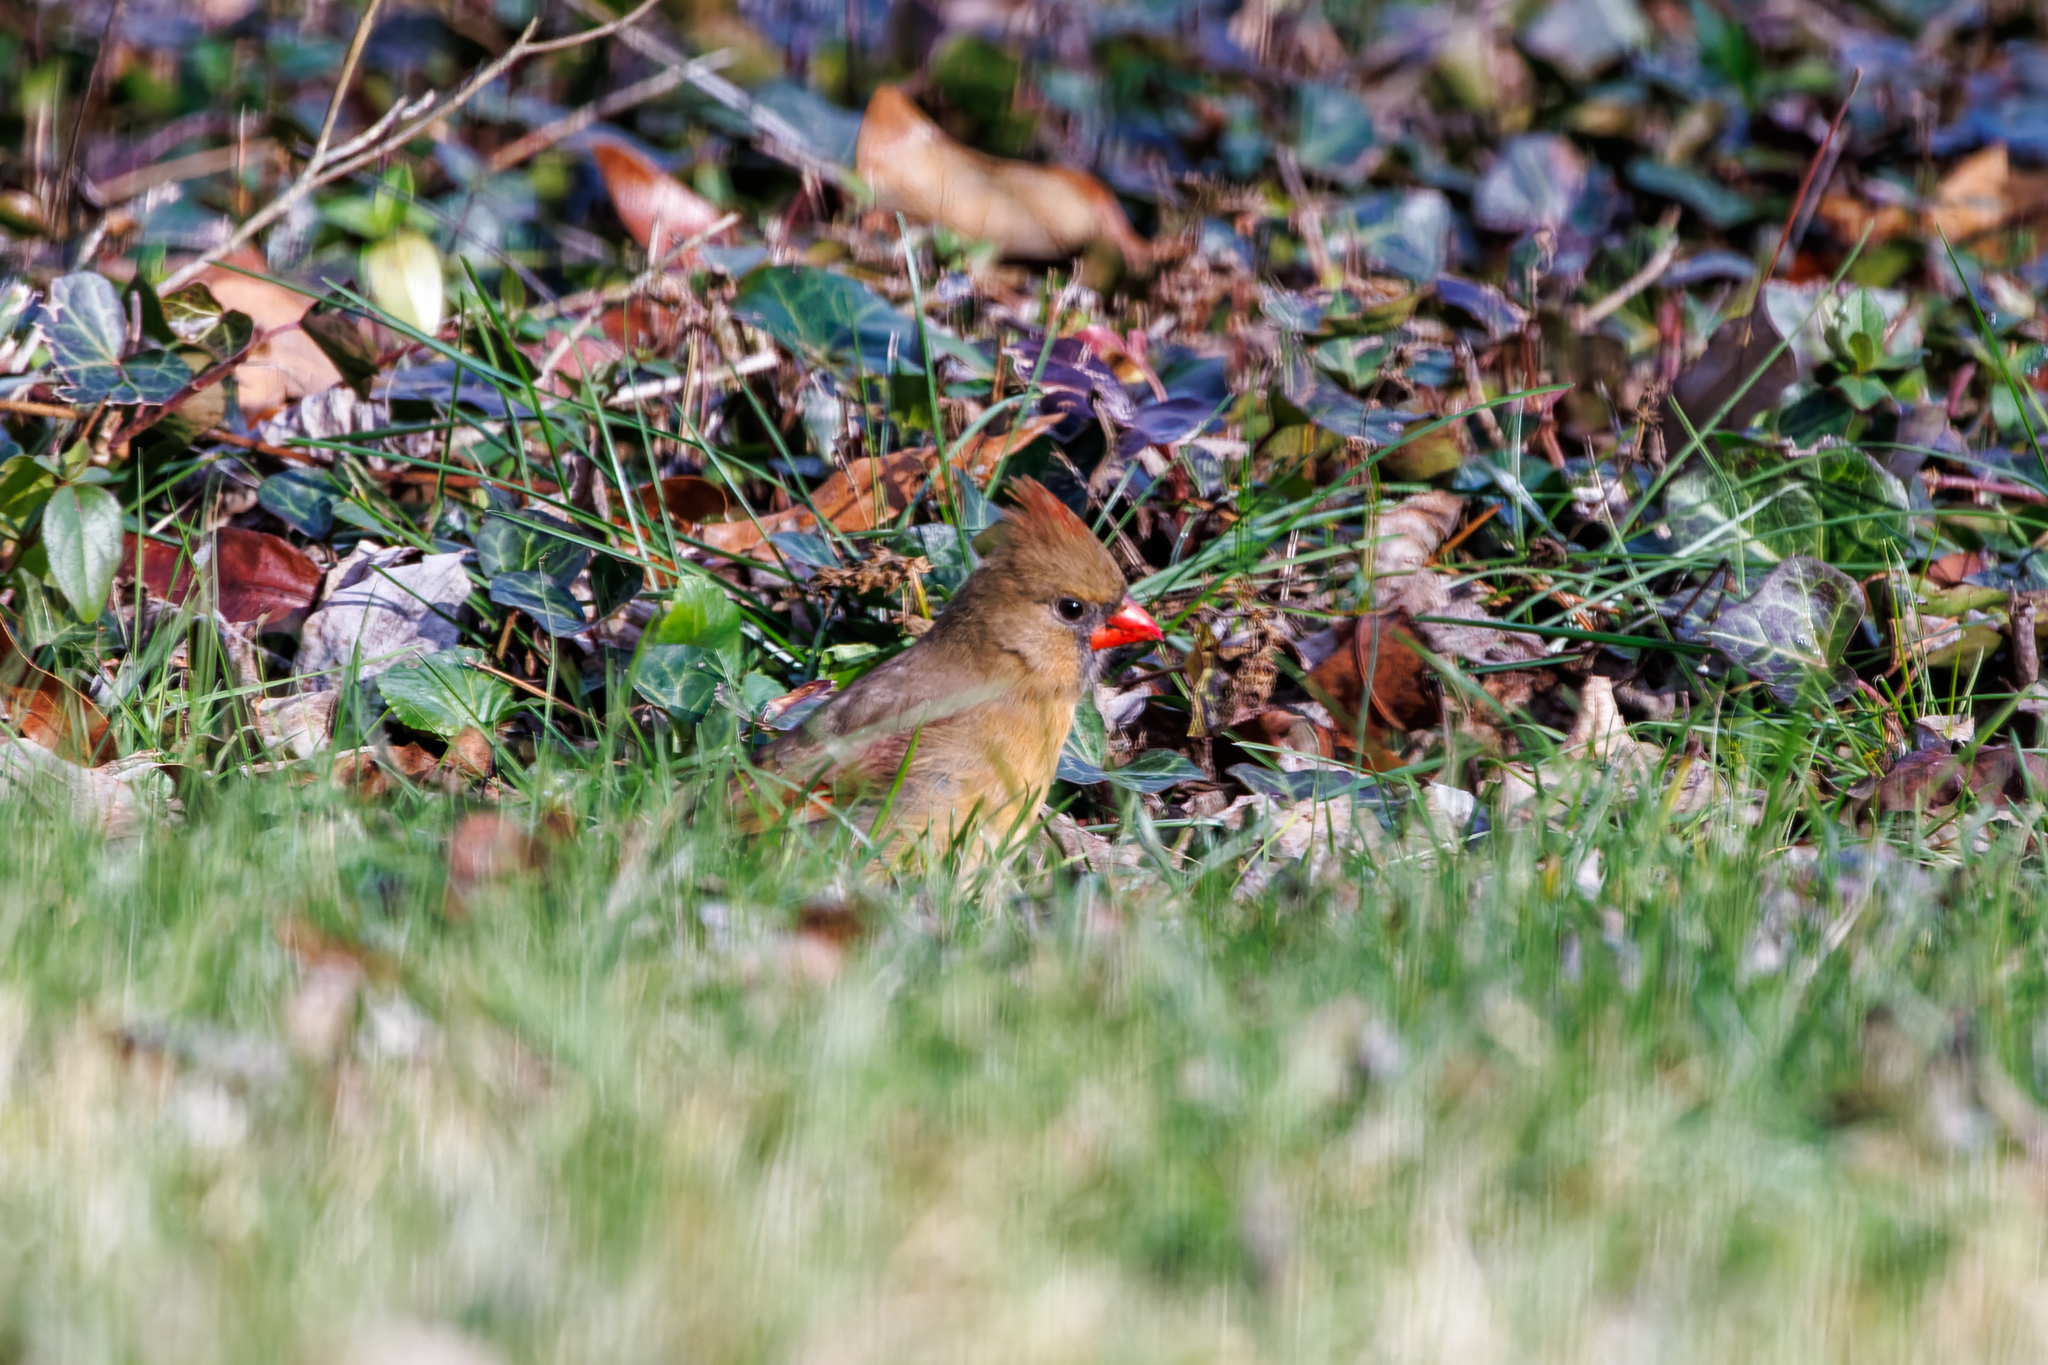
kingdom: Animalia
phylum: Chordata
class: Aves
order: Passeriformes
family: Cardinalidae
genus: Cardinalis
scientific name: Cardinalis cardinalis
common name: Northern cardinal
